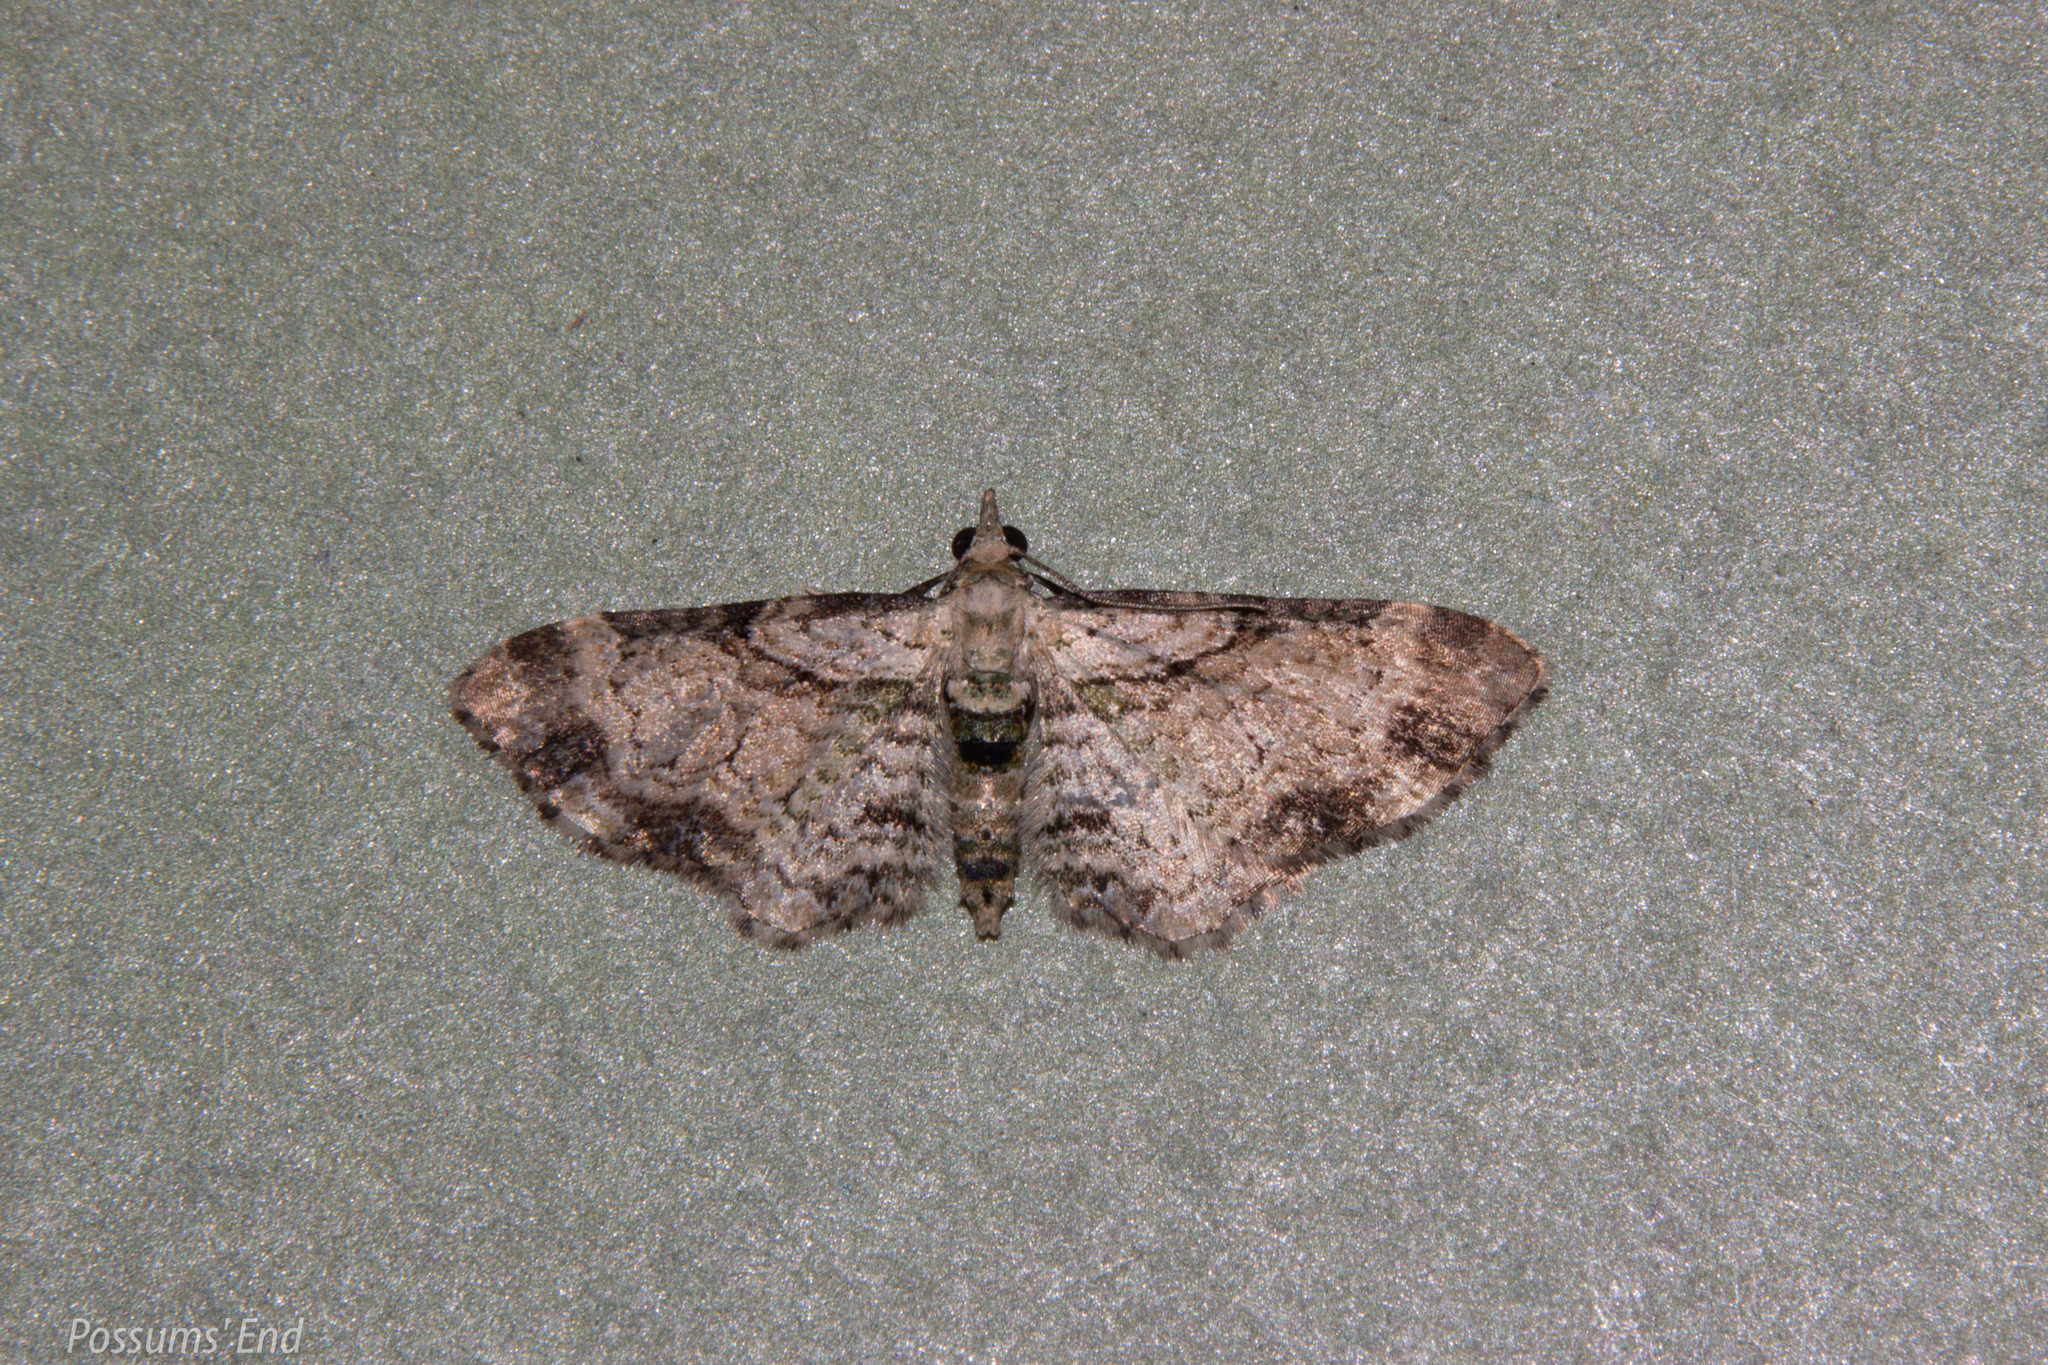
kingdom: Animalia
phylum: Arthropoda
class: Insecta
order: Lepidoptera
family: Geometridae
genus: Chloroclystis
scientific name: Chloroclystis
